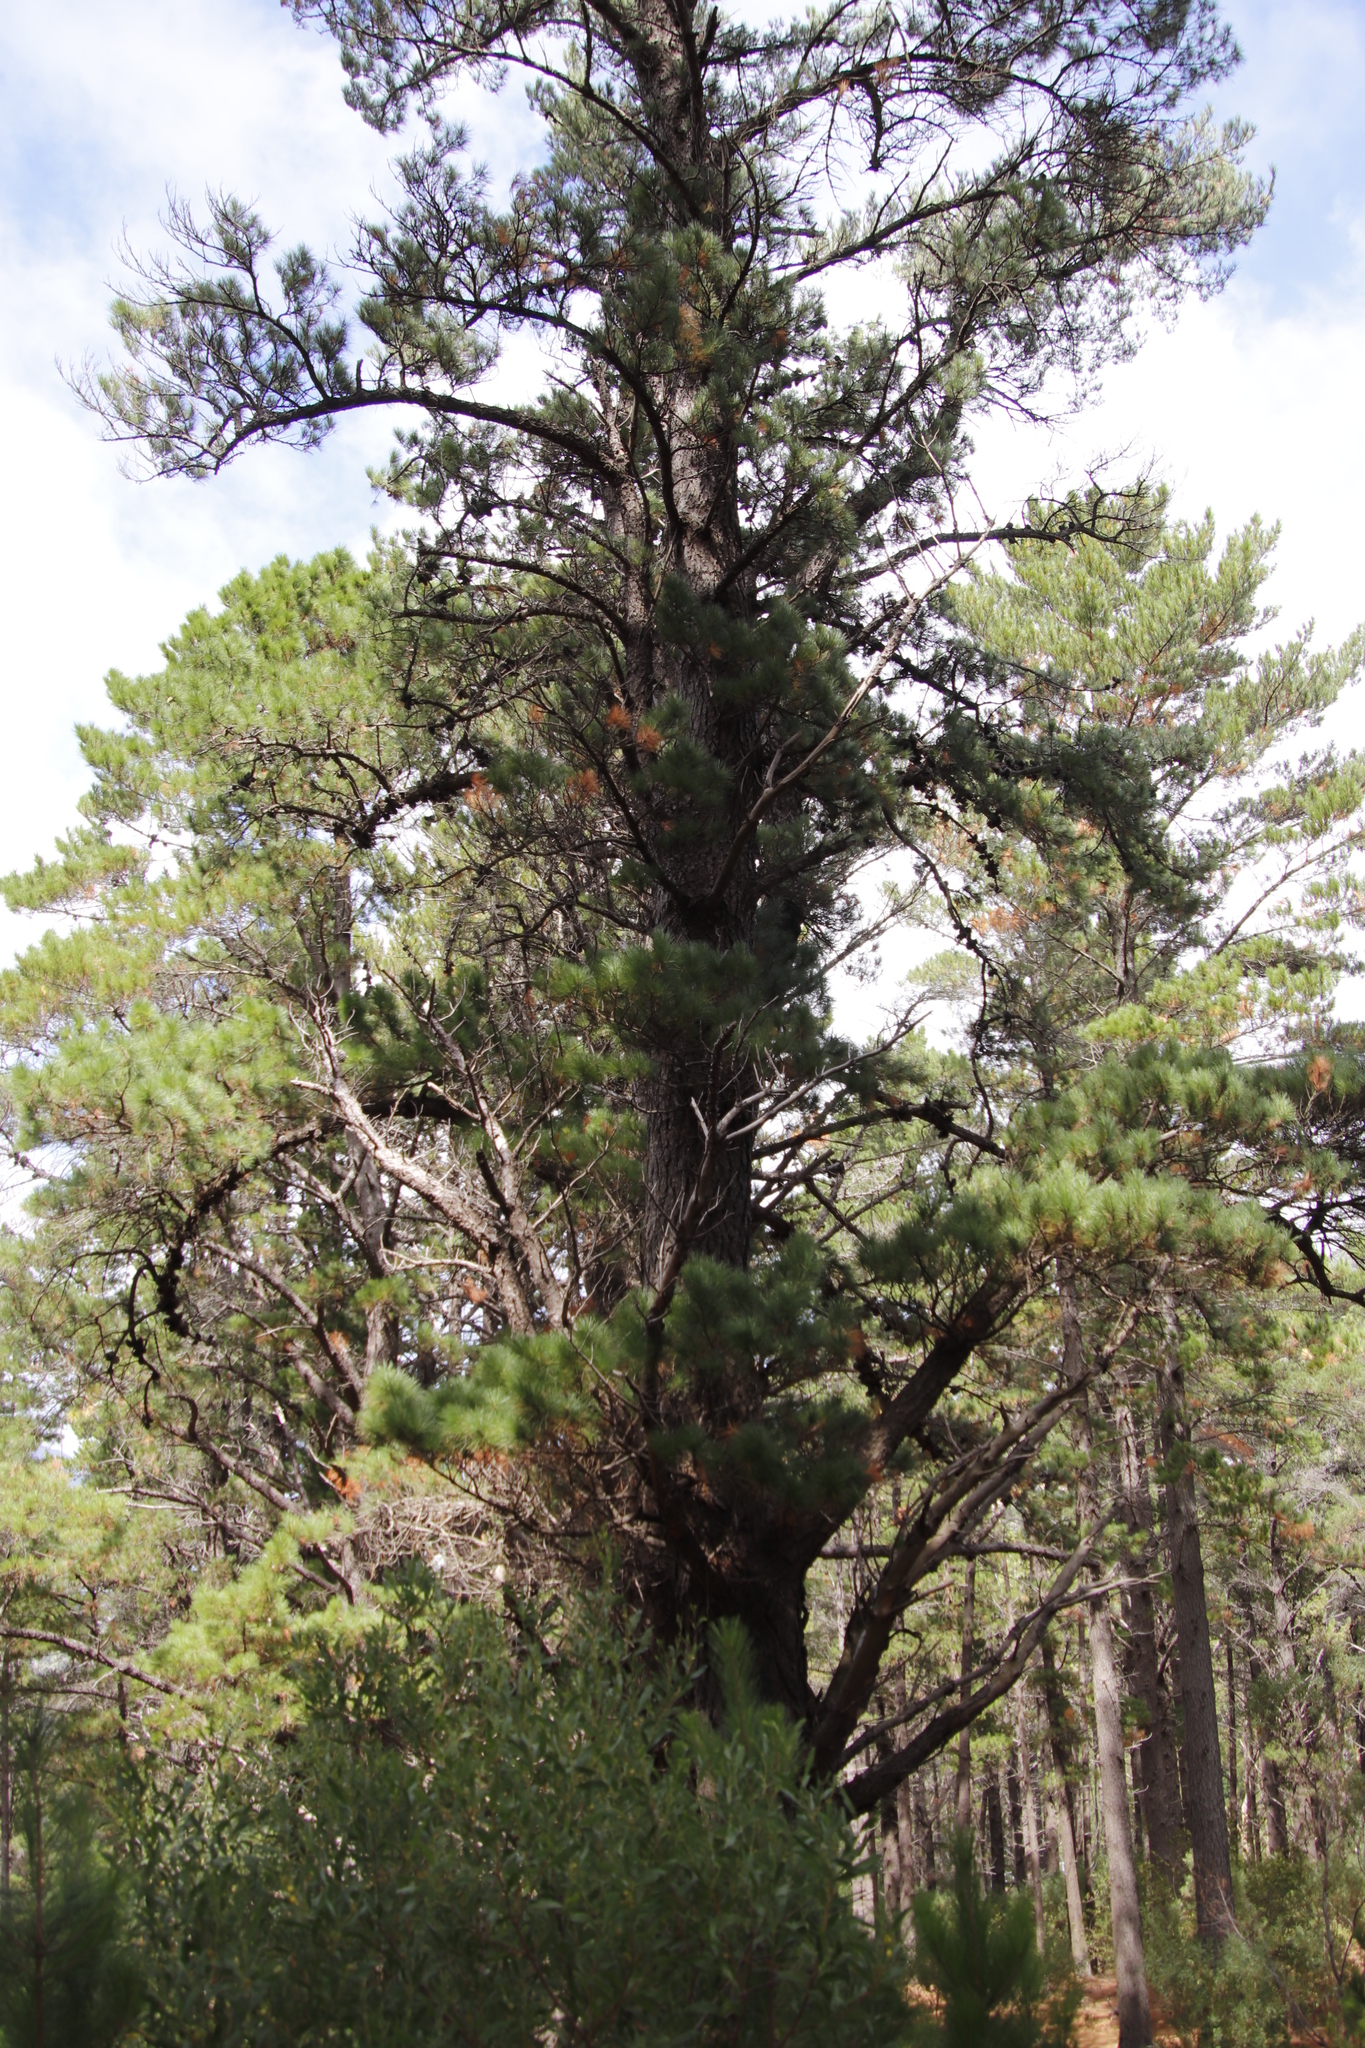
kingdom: Plantae
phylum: Tracheophyta
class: Pinopsida
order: Pinales
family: Pinaceae
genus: Pinus
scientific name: Pinus radiata
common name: Monterey pine
